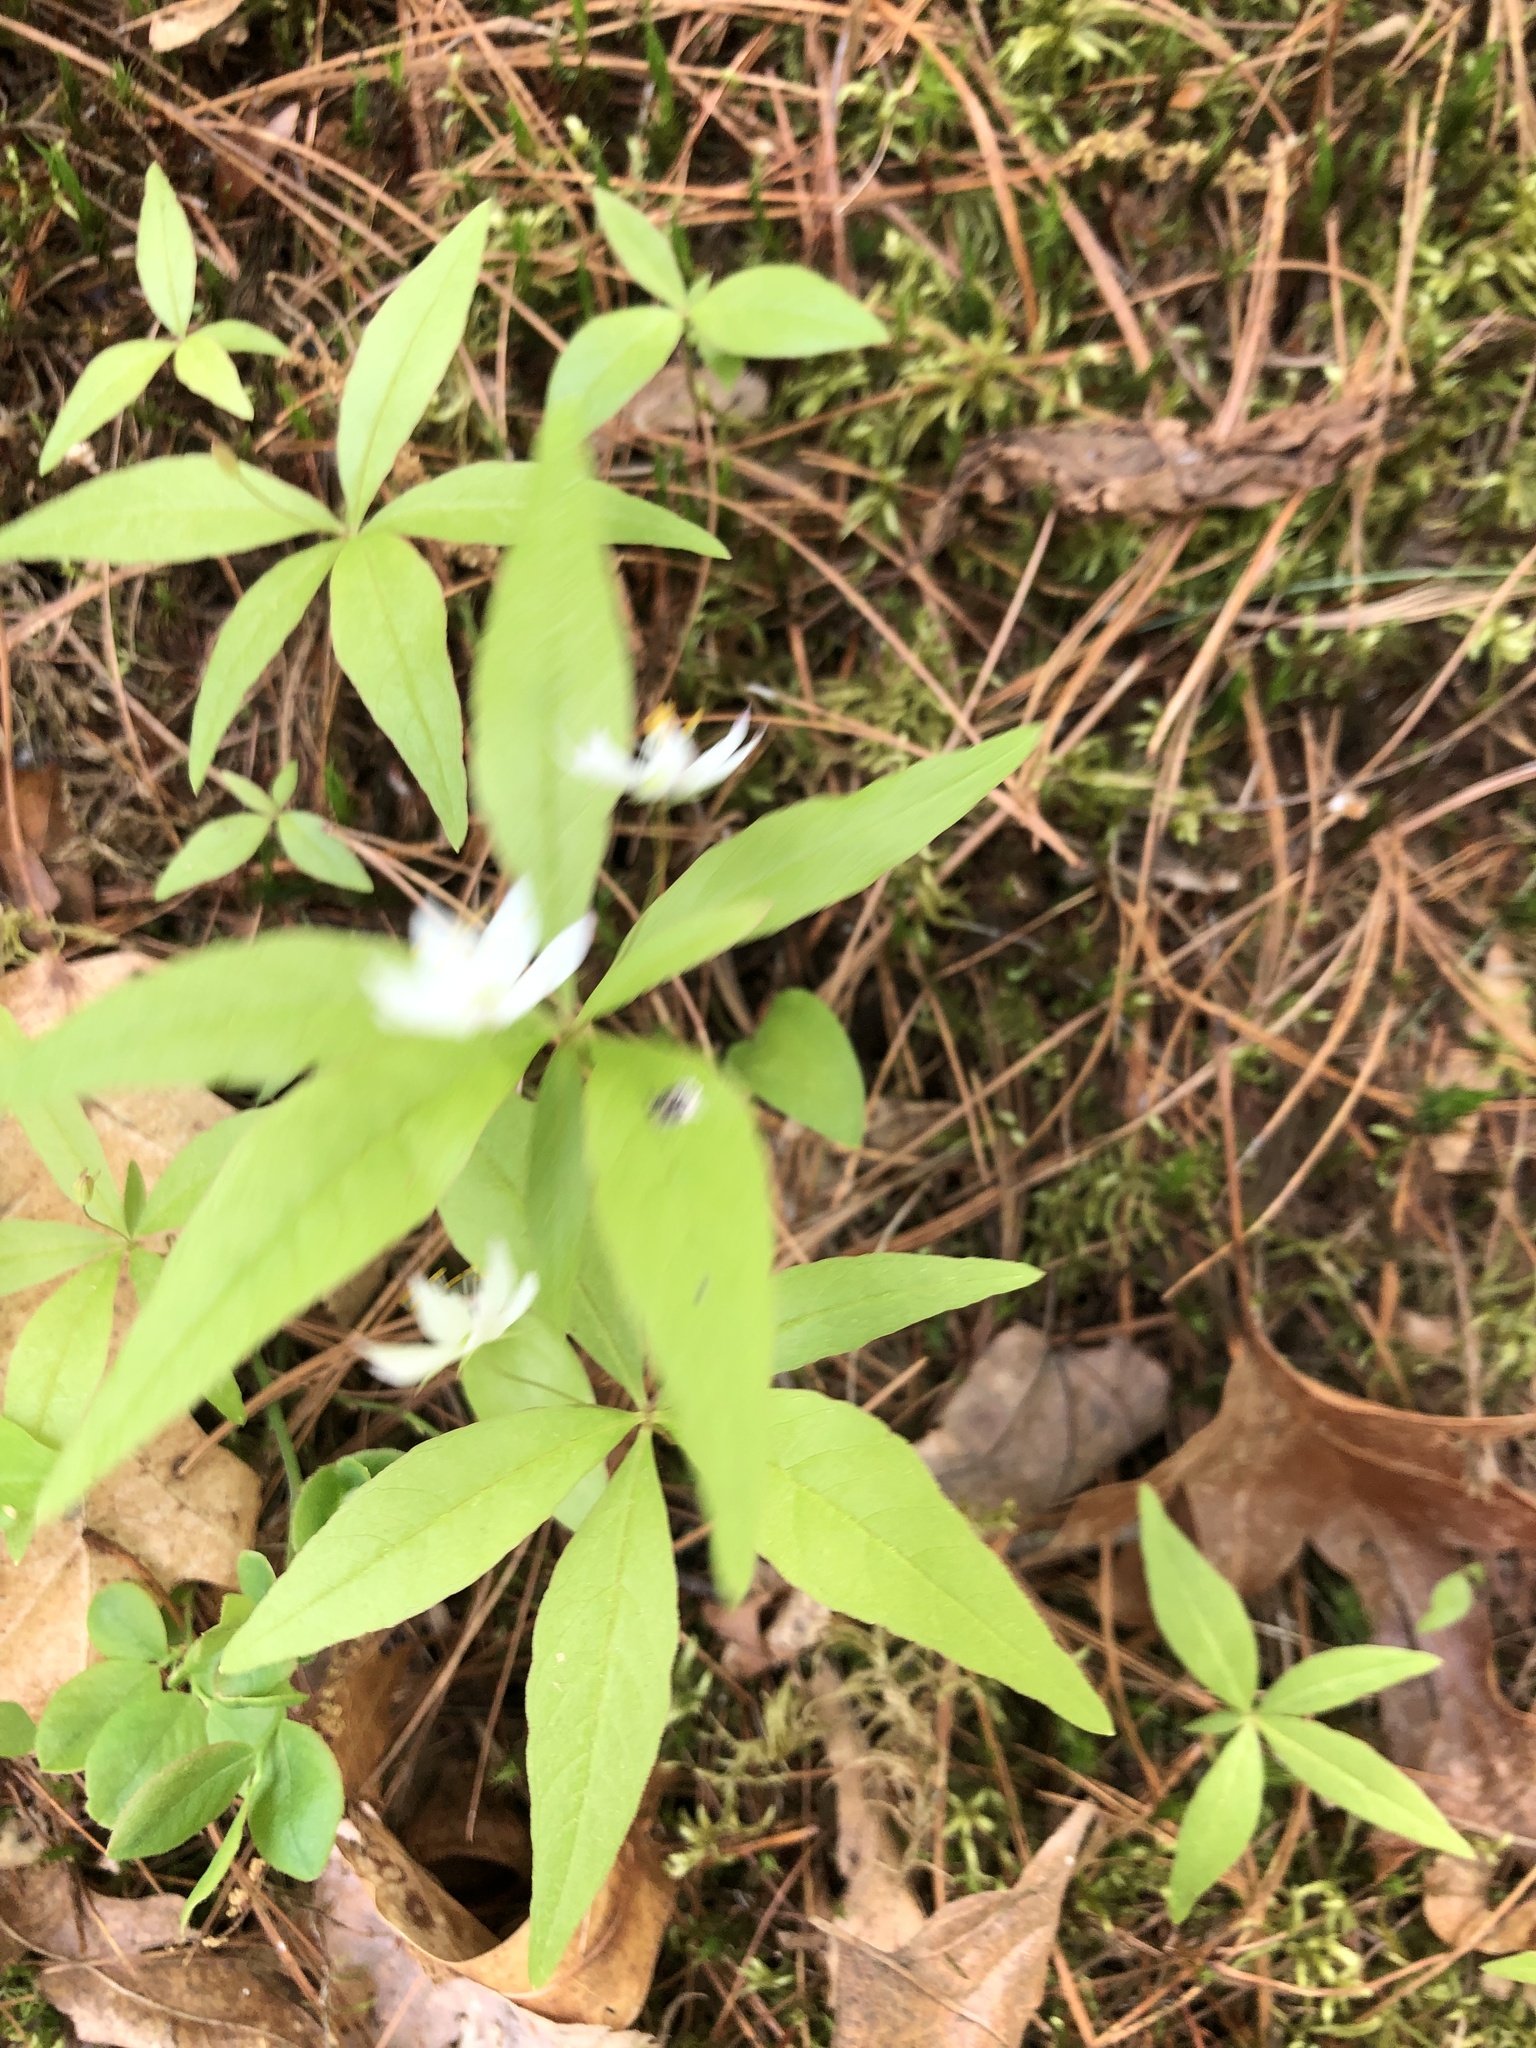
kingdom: Plantae
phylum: Tracheophyta
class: Magnoliopsida
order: Ericales
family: Primulaceae
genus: Lysimachia
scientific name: Lysimachia borealis
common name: American starflower
